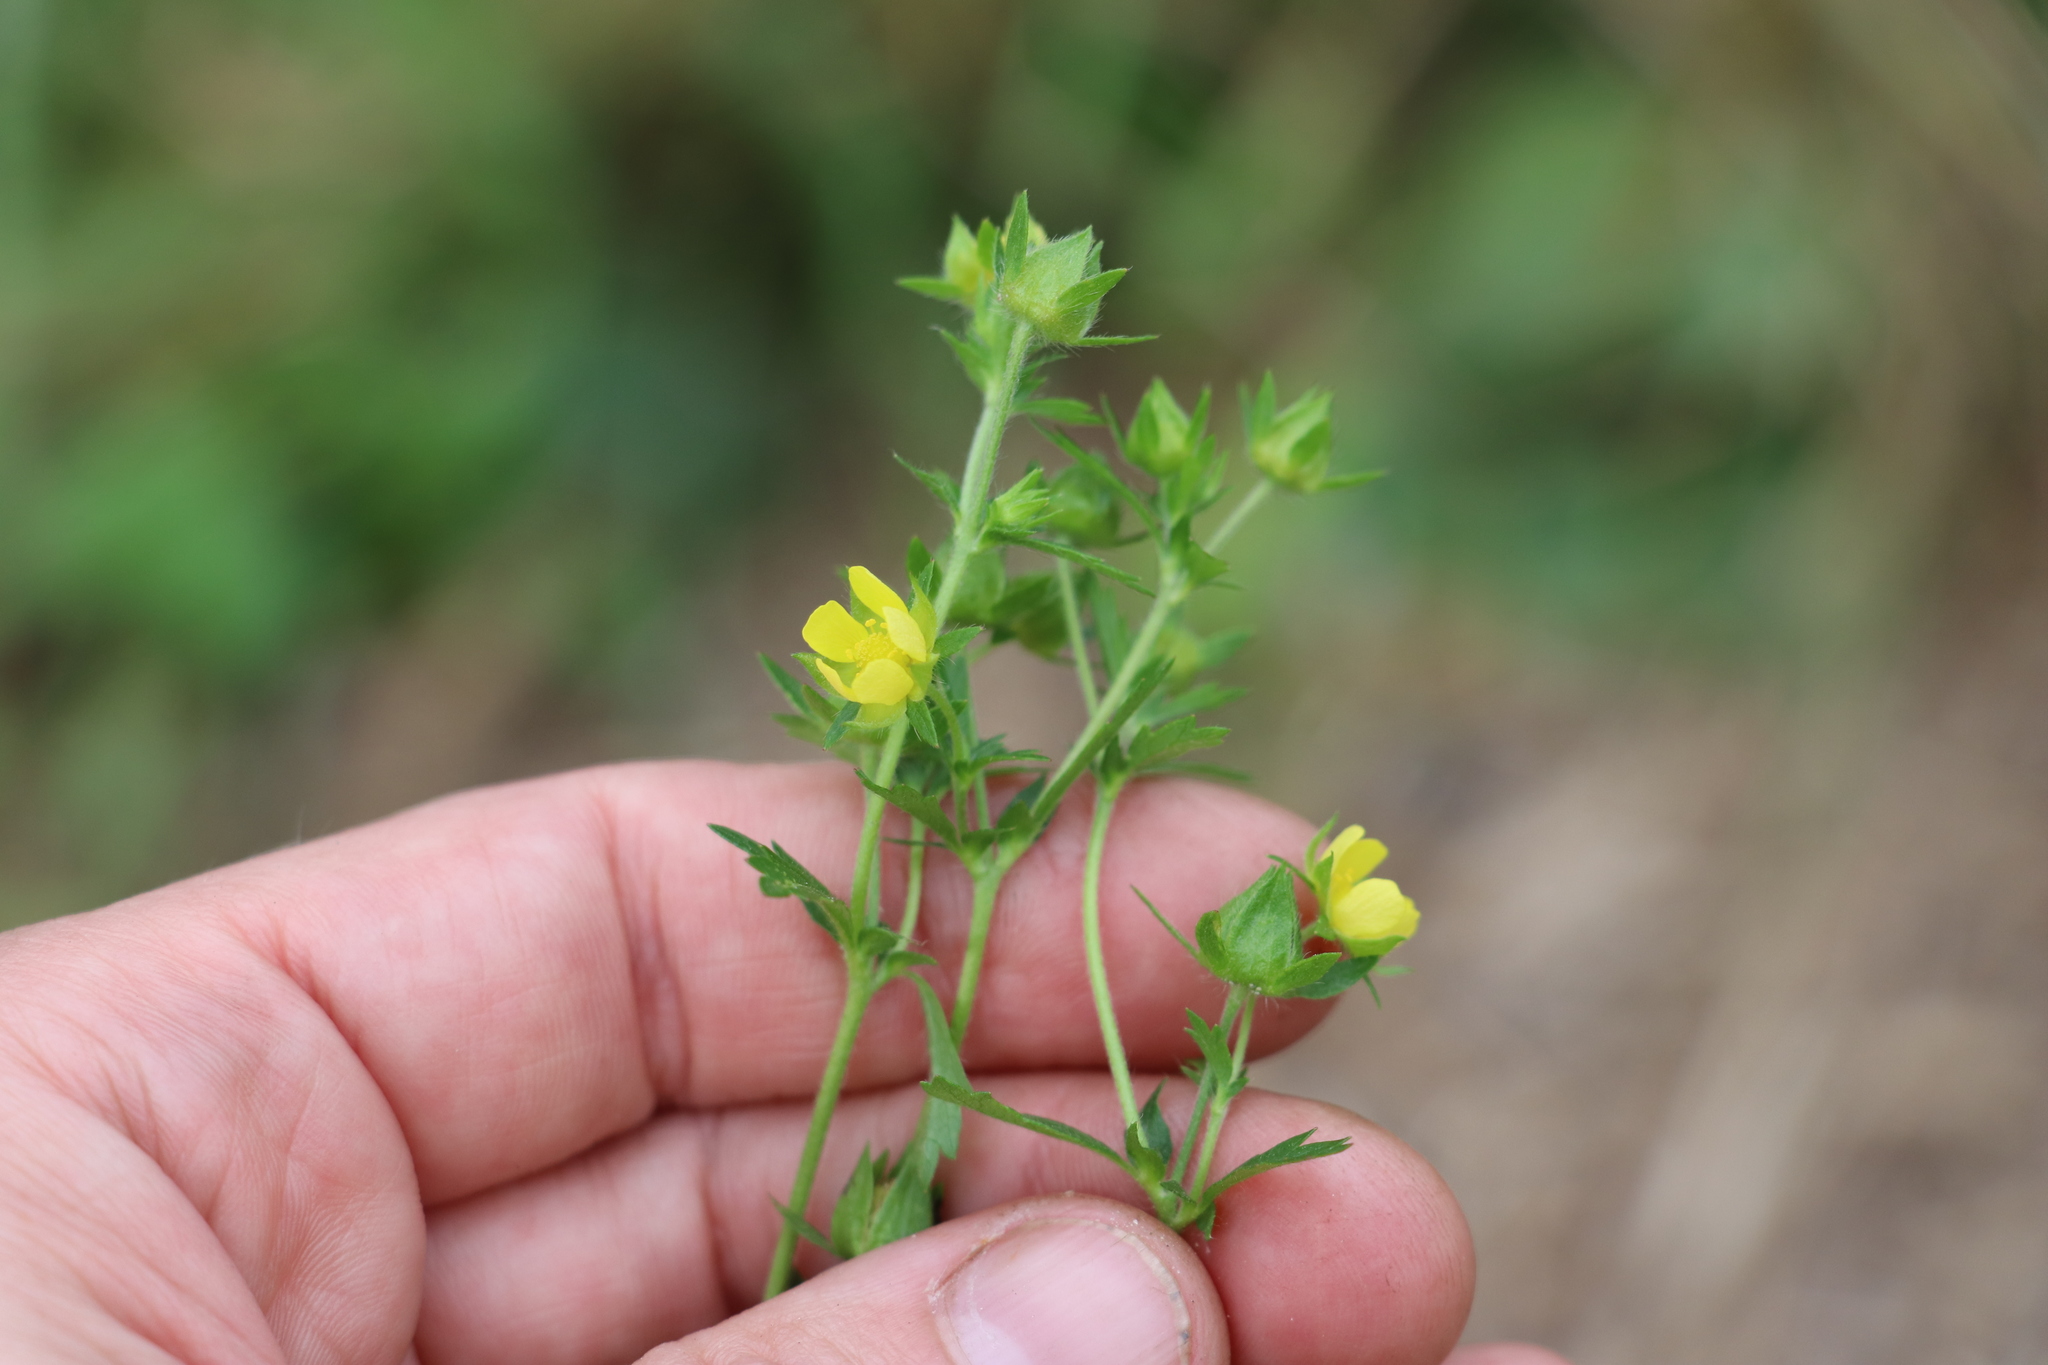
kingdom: Plantae
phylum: Tracheophyta
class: Magnoliopsida
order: Rosales
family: Rosaceae
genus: Potentilla
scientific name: Potentilla norvegica
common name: Ternate-leaved cinquefoil
